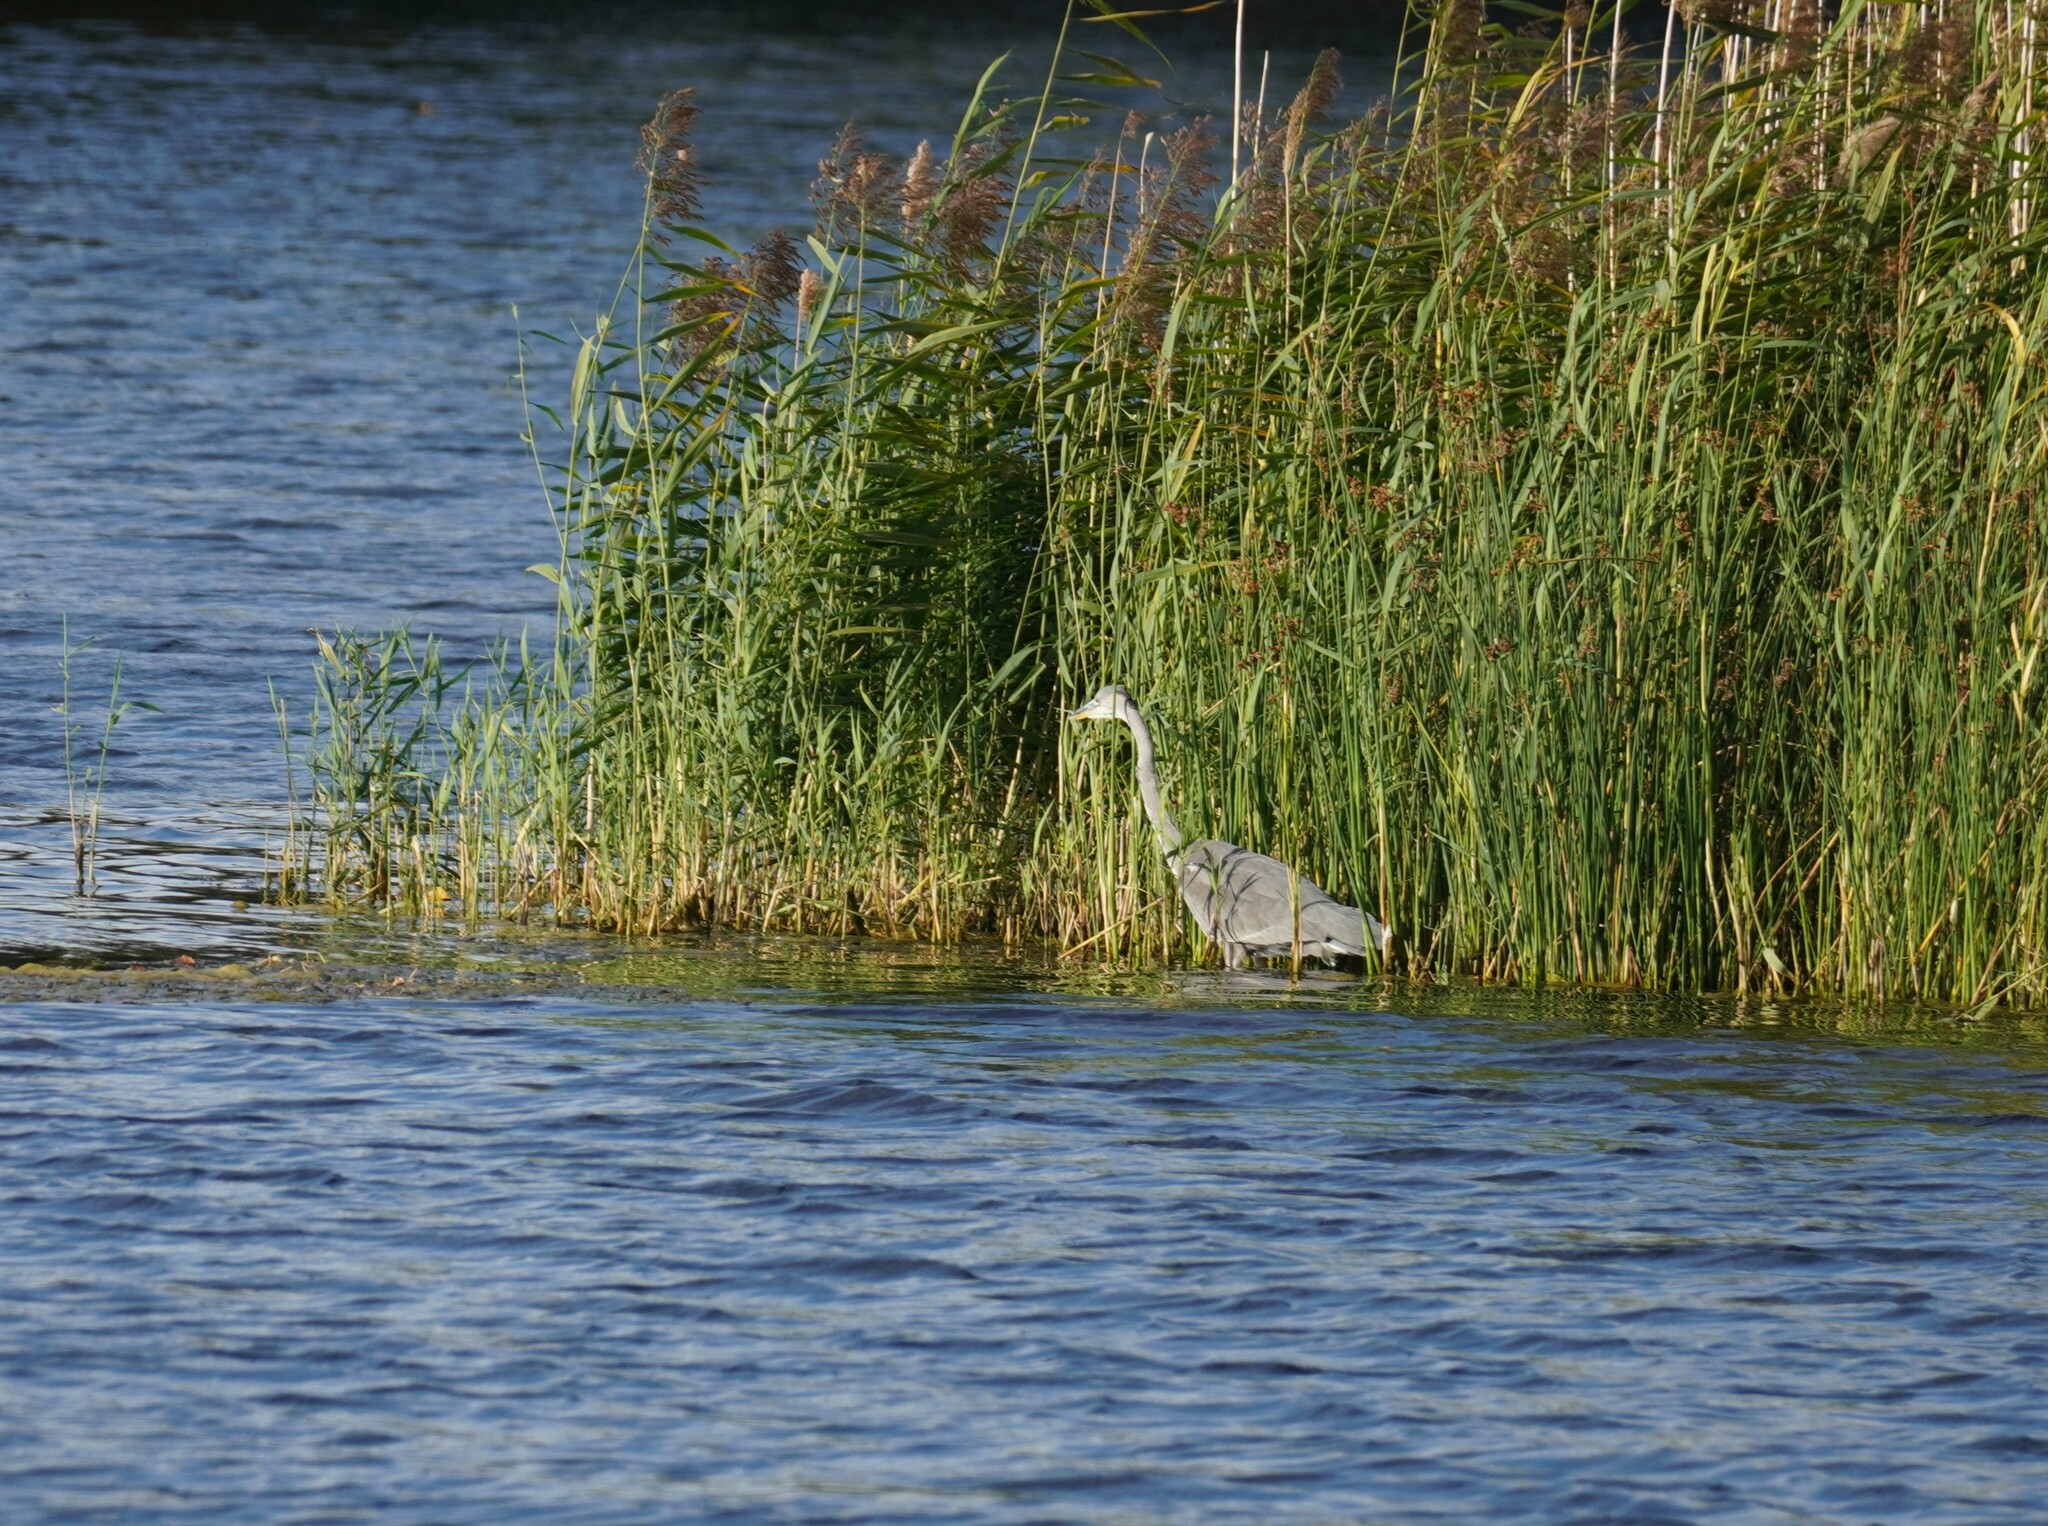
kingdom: Animalia
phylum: Chordata
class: Aves
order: Pelecaniformes
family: Ardeidae
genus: Ardea
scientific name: Ardea cinerea
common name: Grey heron
